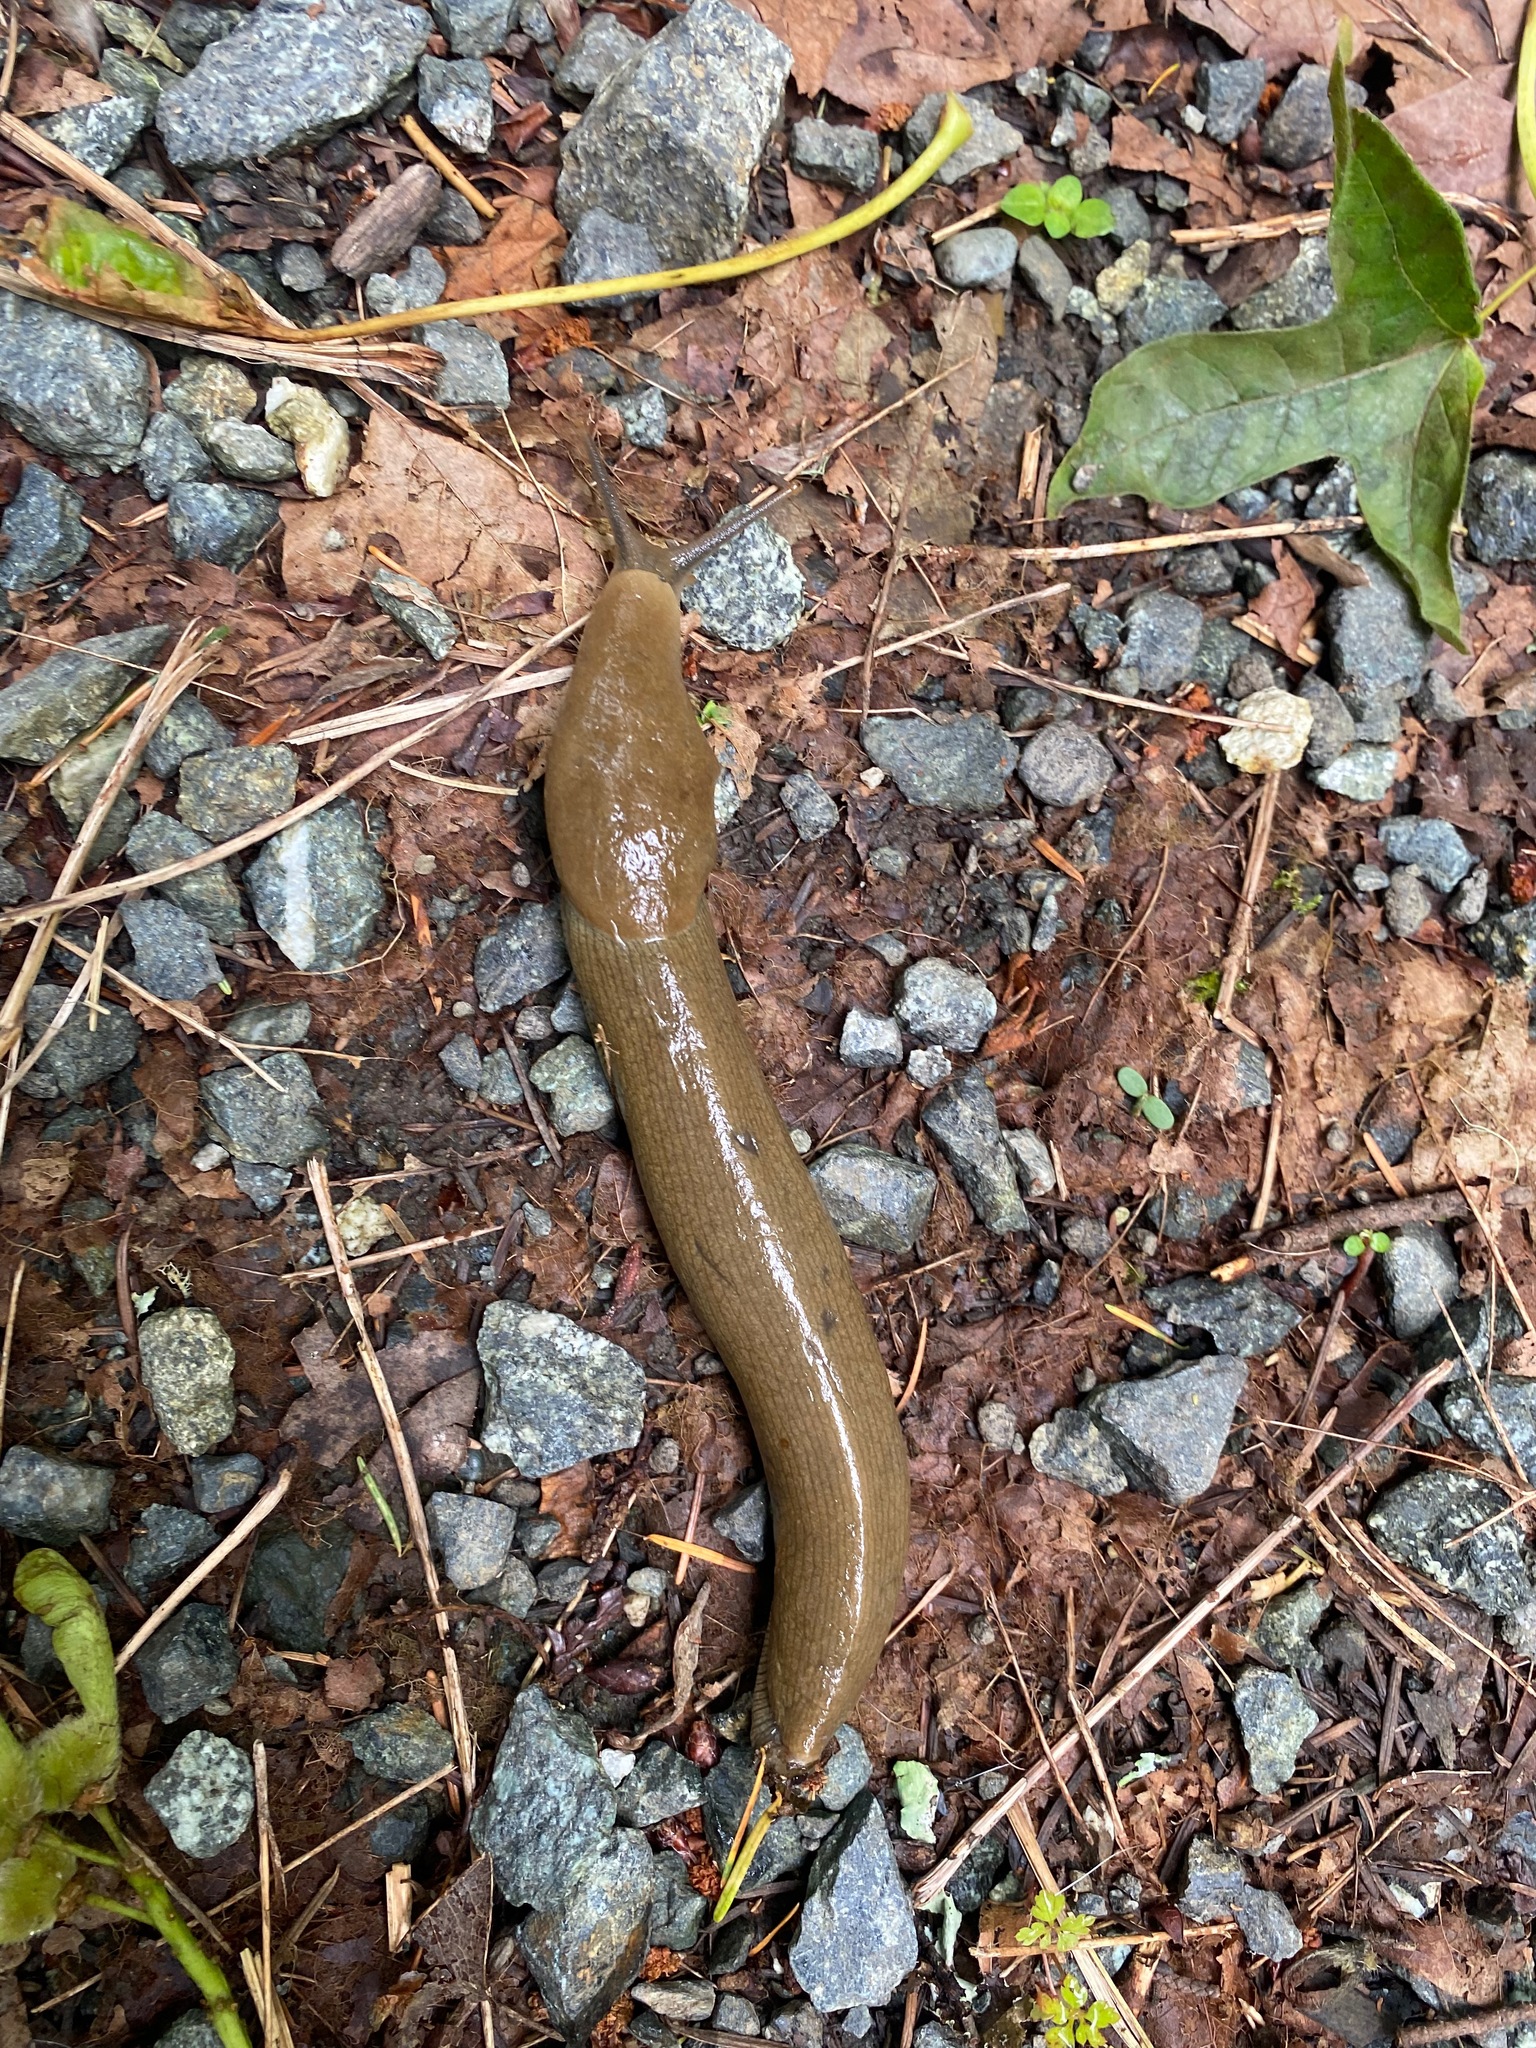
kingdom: Animalia
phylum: Mollusca
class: Gastropoda
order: Stylommatophora
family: Ariolimacidae
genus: Ariolimax
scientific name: Ariolimax columbianus
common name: Pacific banana slug
